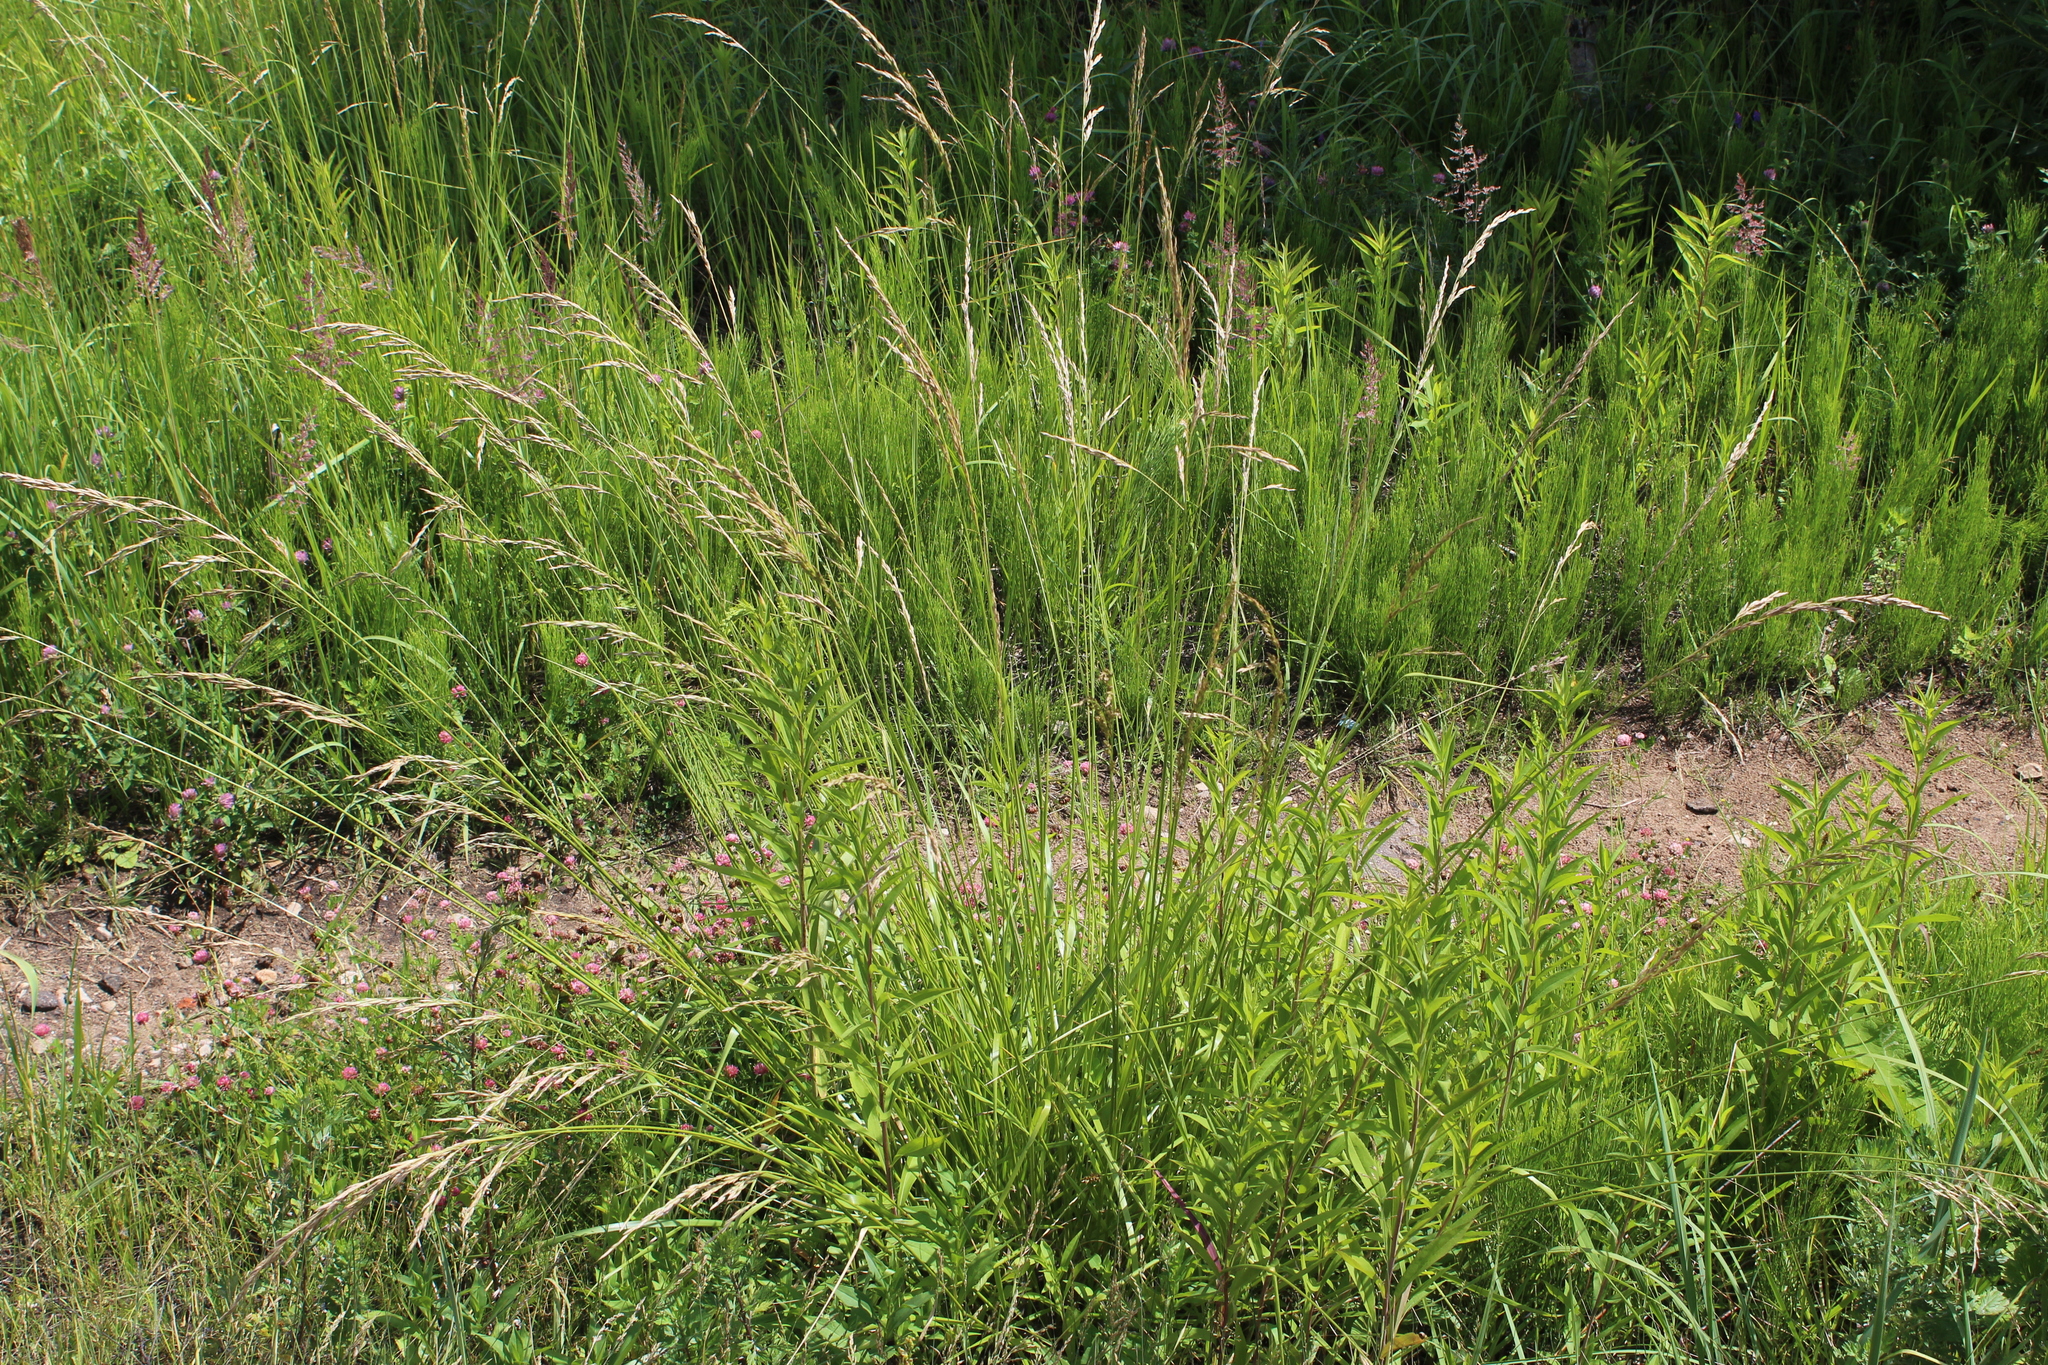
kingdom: Plantae
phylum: Tracheophyta
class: Liliopsida
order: Poales
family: Poaceae
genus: Lolium
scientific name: Lolium arundinaceum
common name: Reed fescue
